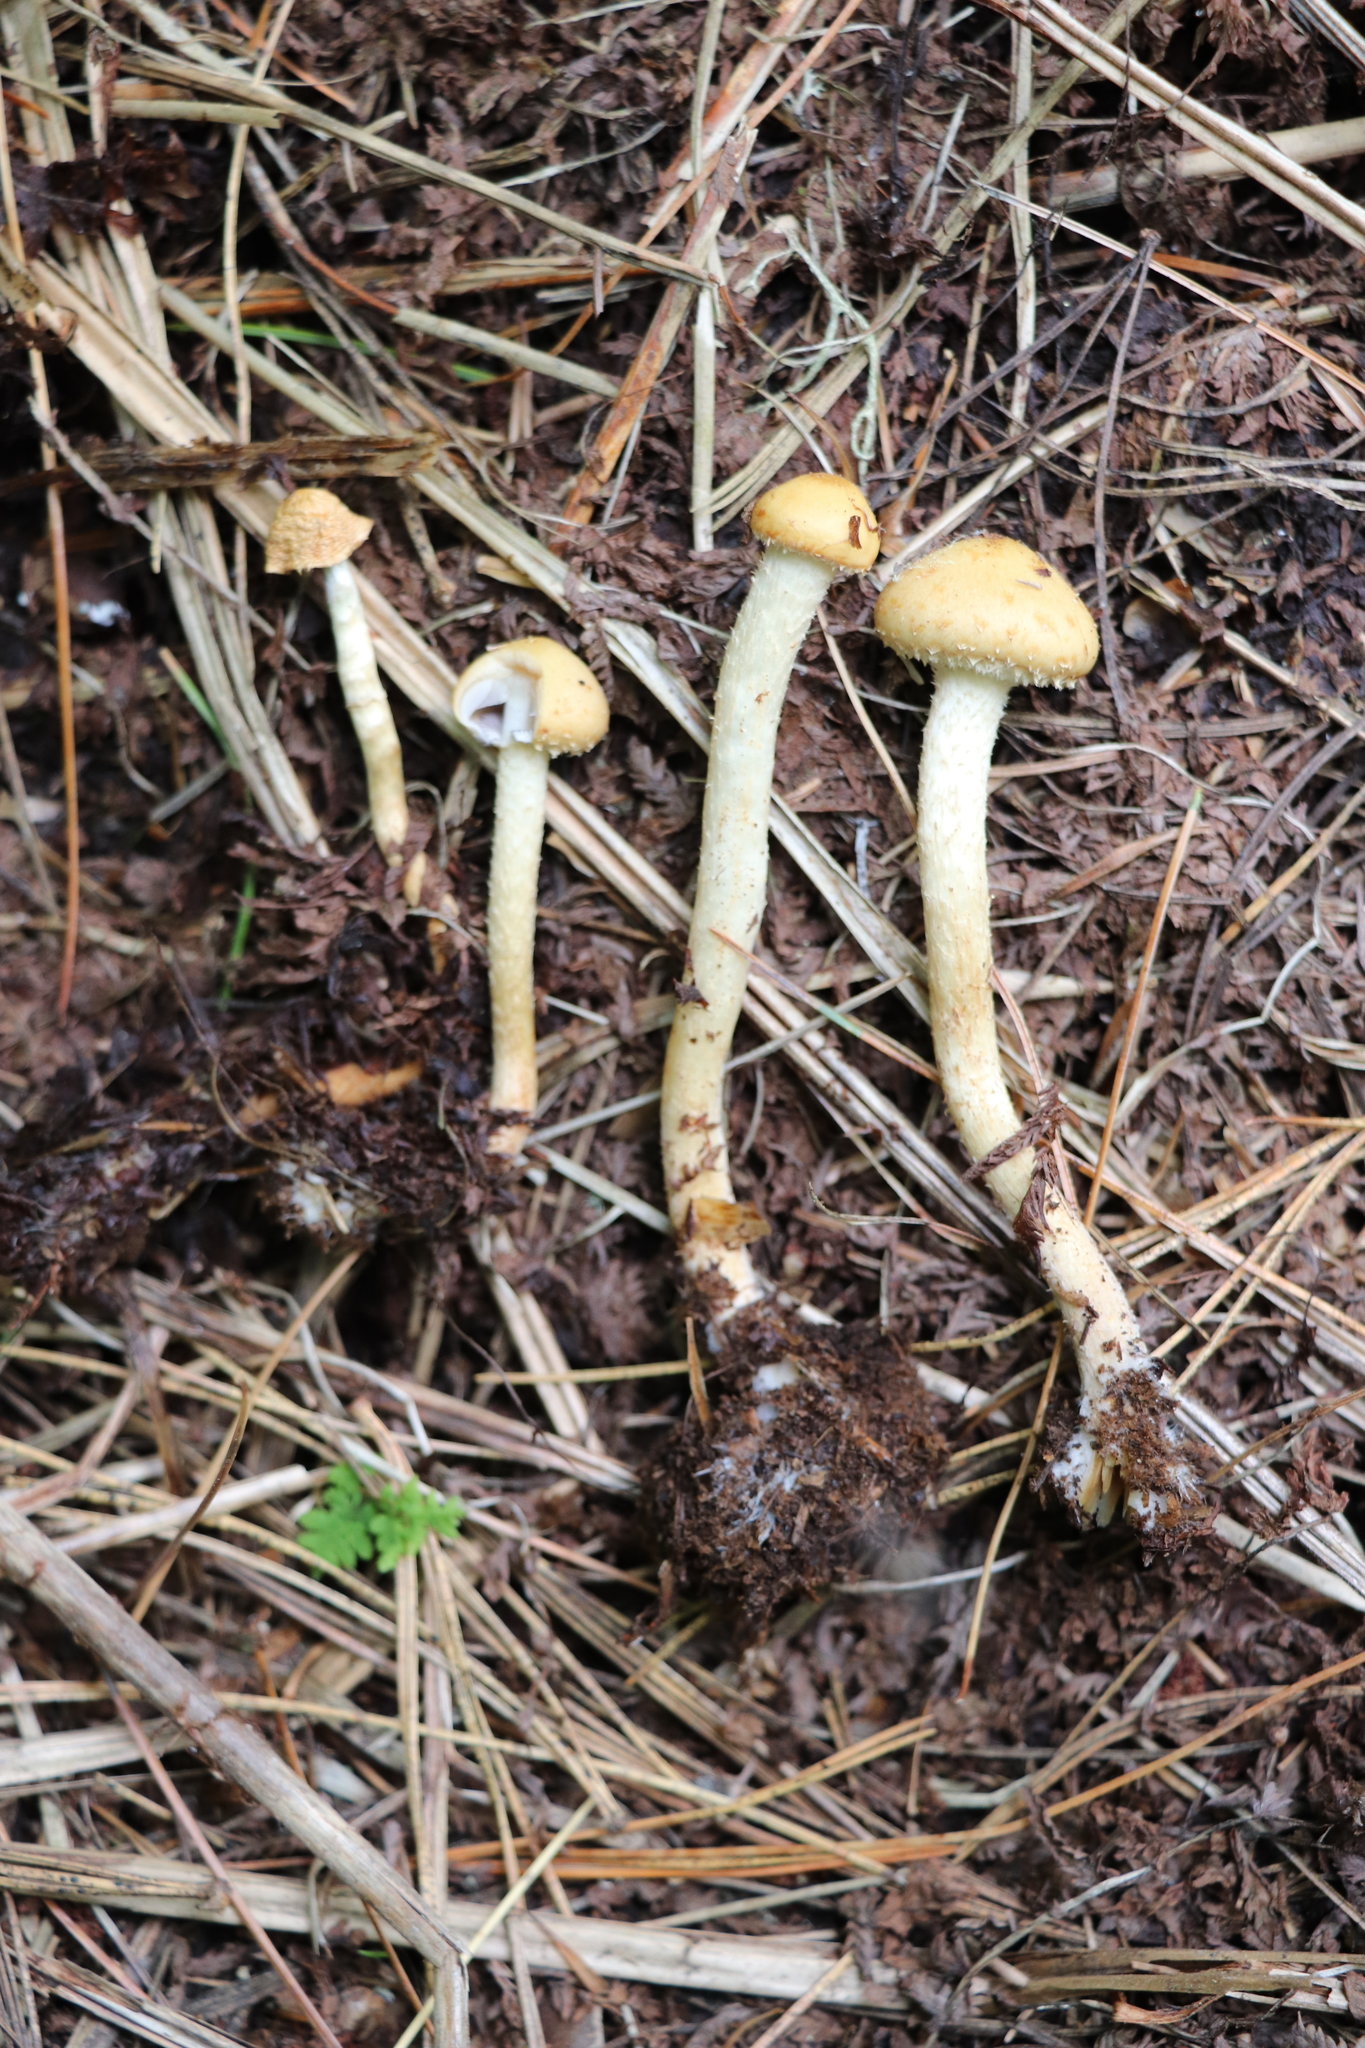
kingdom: Fungi
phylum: Basidiomycota
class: Agaricomycetes
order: Agaricales
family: Strophariaceae
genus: Leratiomyces
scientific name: Leratiomyces magnivelaris
